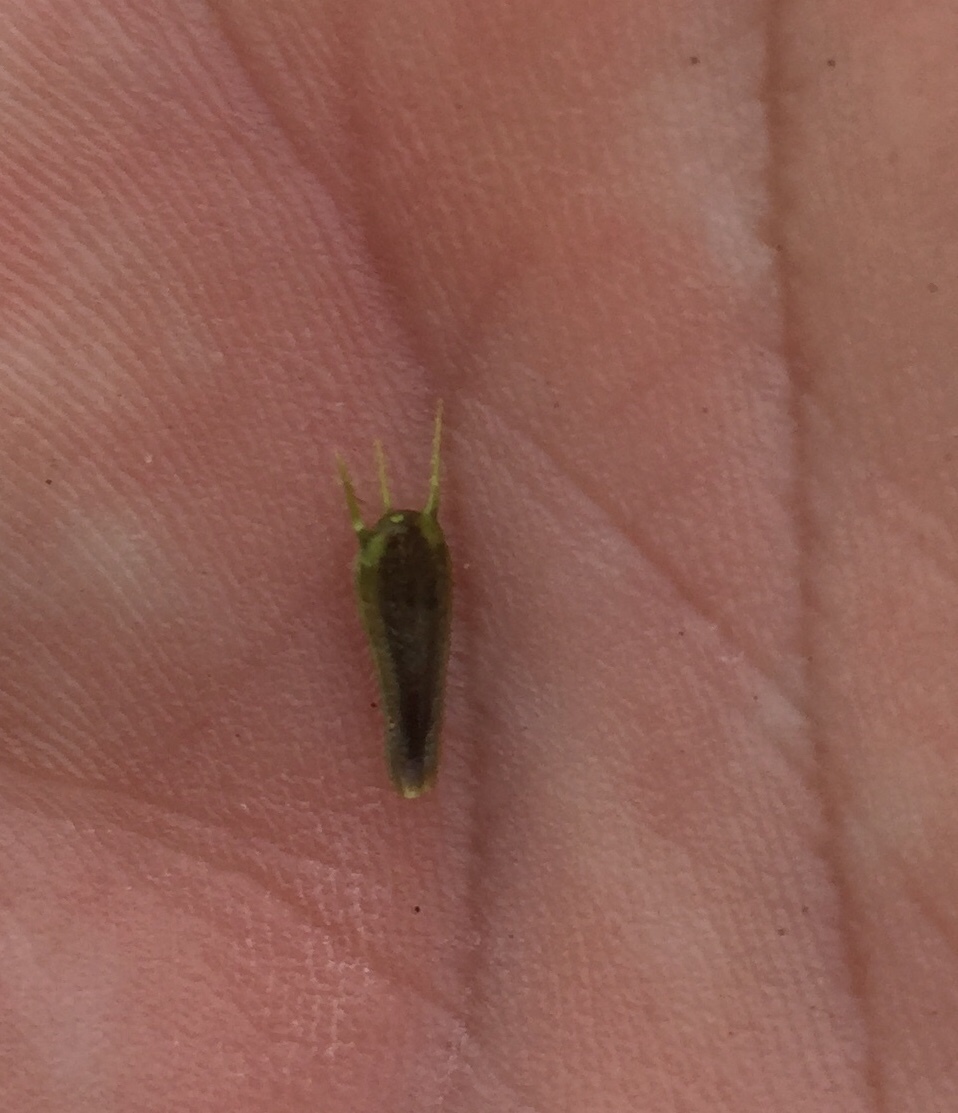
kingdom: Plantae
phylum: Tracheophyta
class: Magnoliopsida
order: Asterales
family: Asteraceae
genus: Bidens
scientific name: Bidens frondosa
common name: Beggarticks
